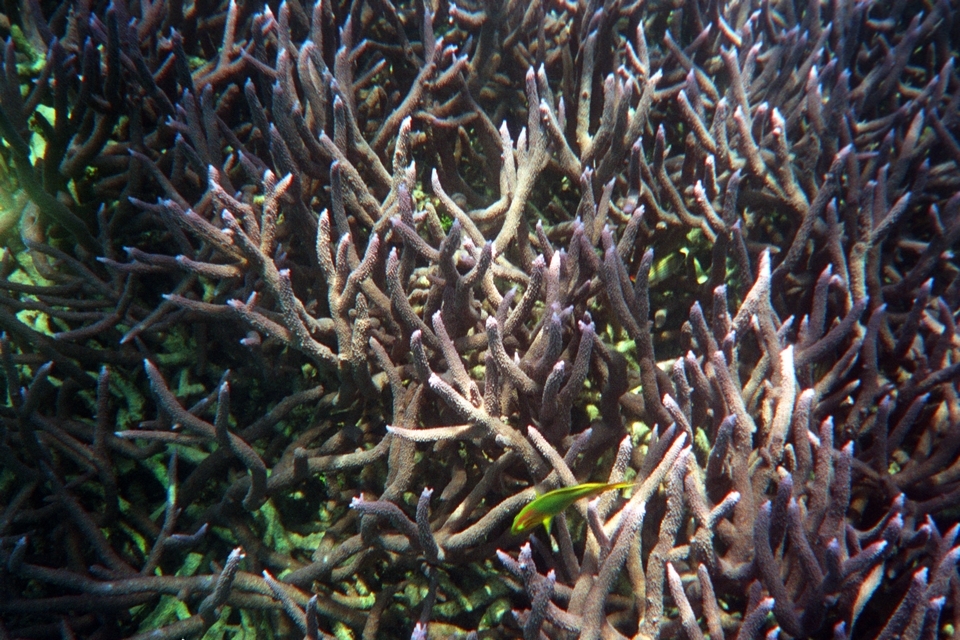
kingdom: Animalia
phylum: Cnidaria
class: Anthozoa
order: Scleractinia
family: Acroporidae
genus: Acropora
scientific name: Acropora muricata
